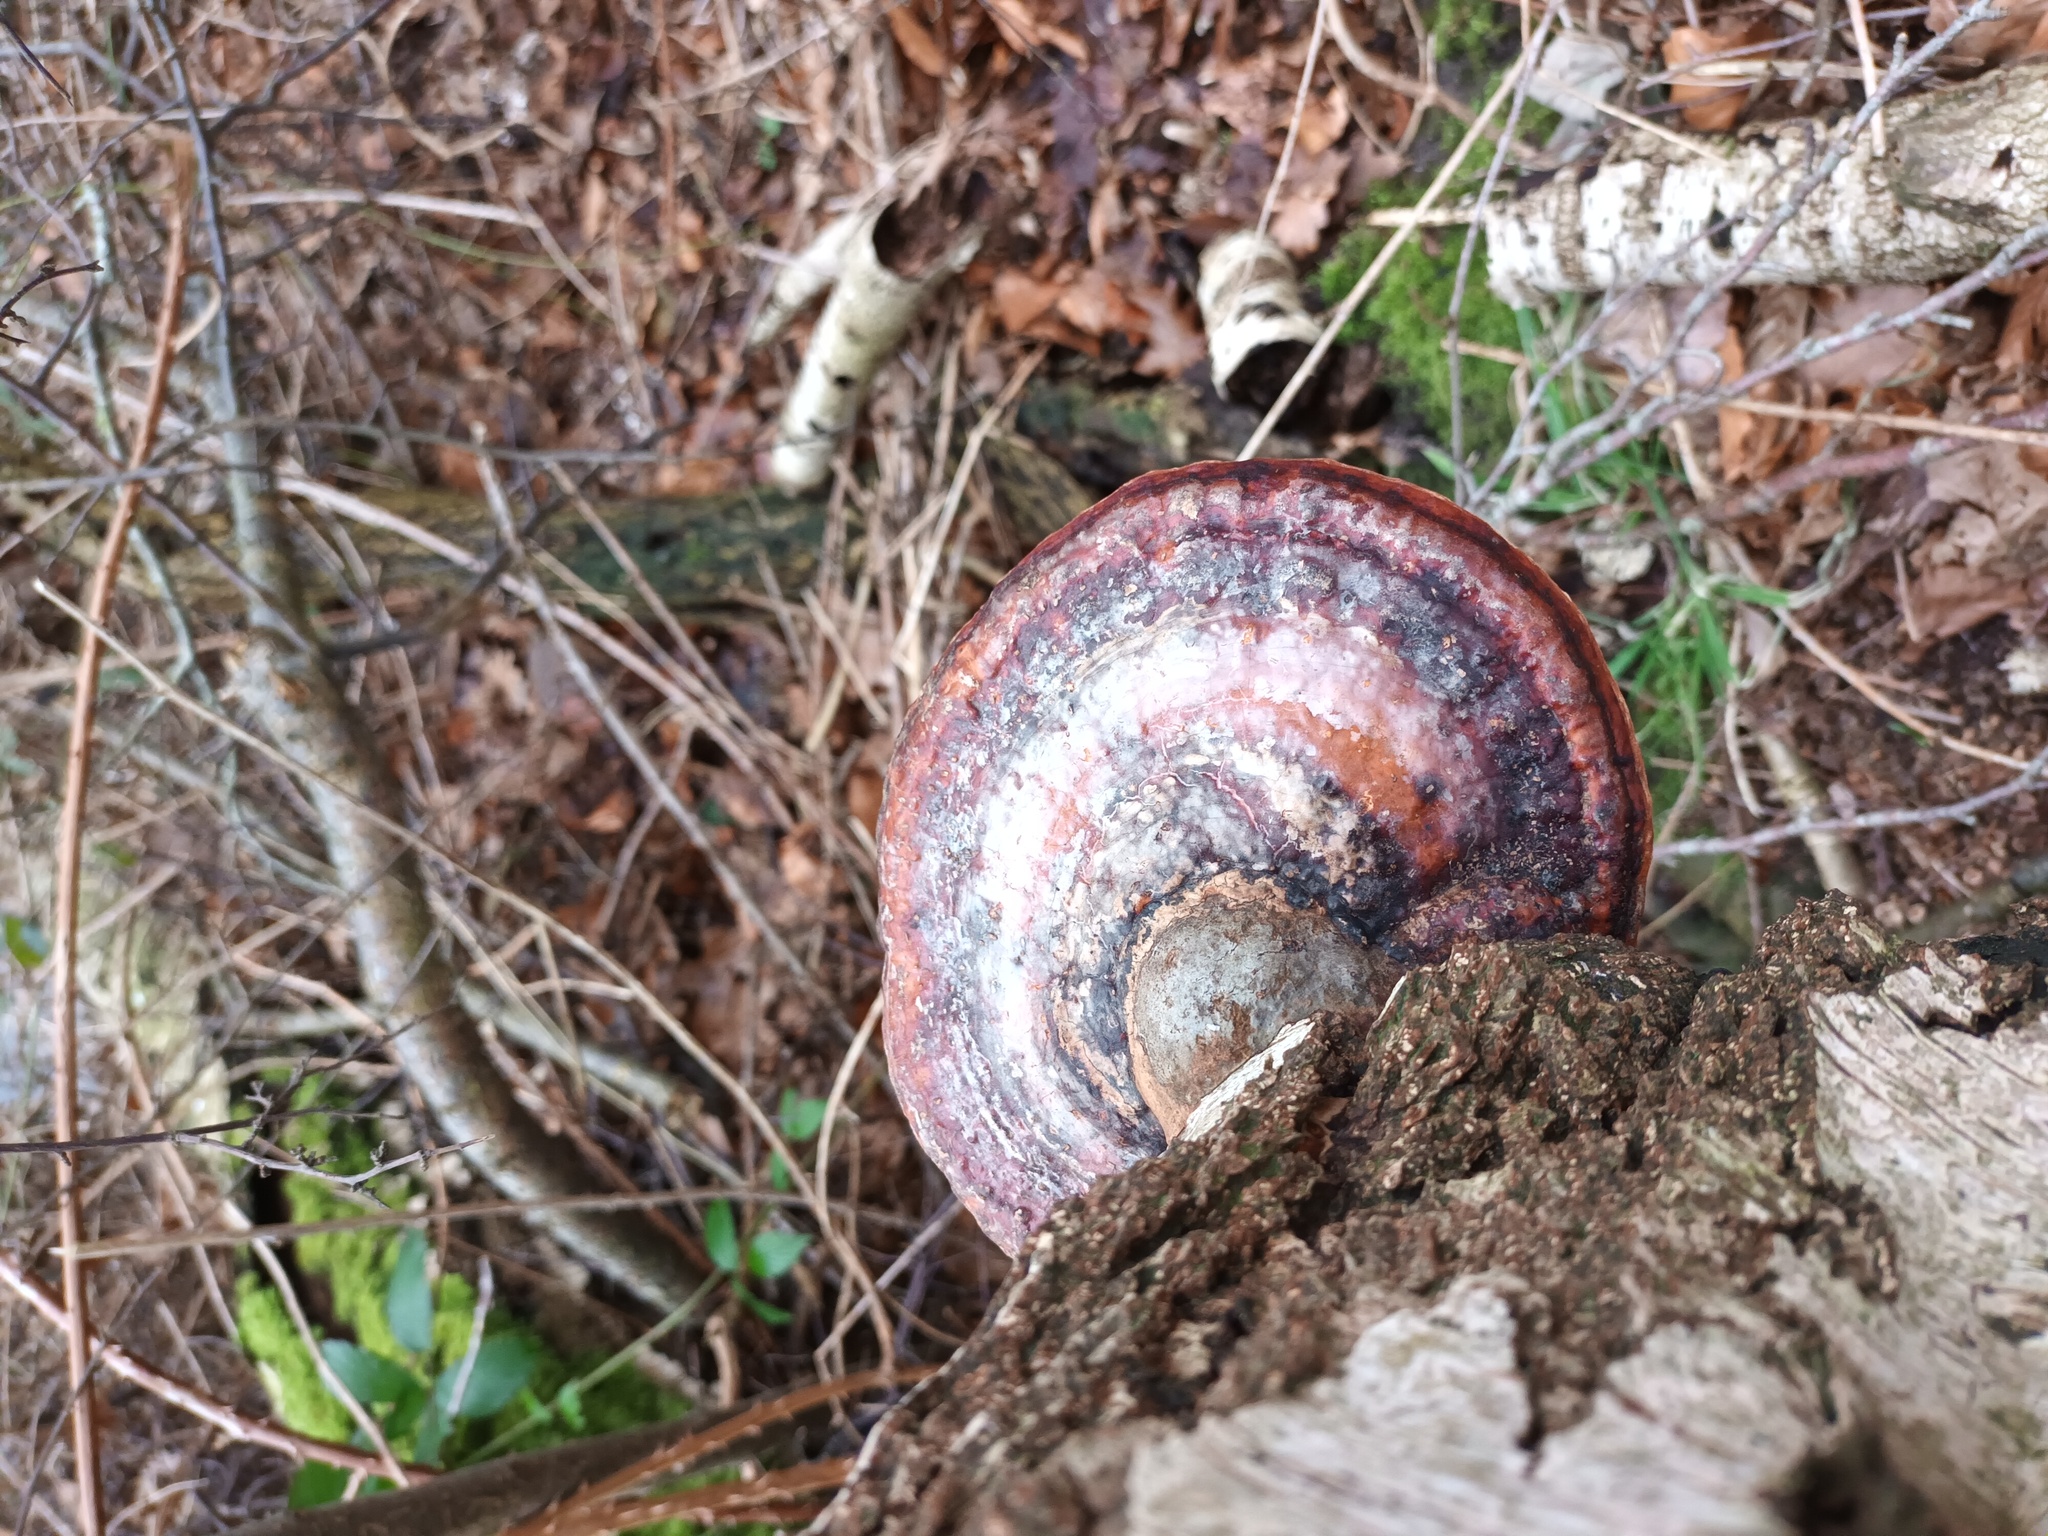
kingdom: Fungi
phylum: Basidiomycota
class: Agaricomycetes
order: Polyporales
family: Fomitopsidaceae
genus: Fomitopsis
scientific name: Fomitopsis pinicola
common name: Red-belted bracket
